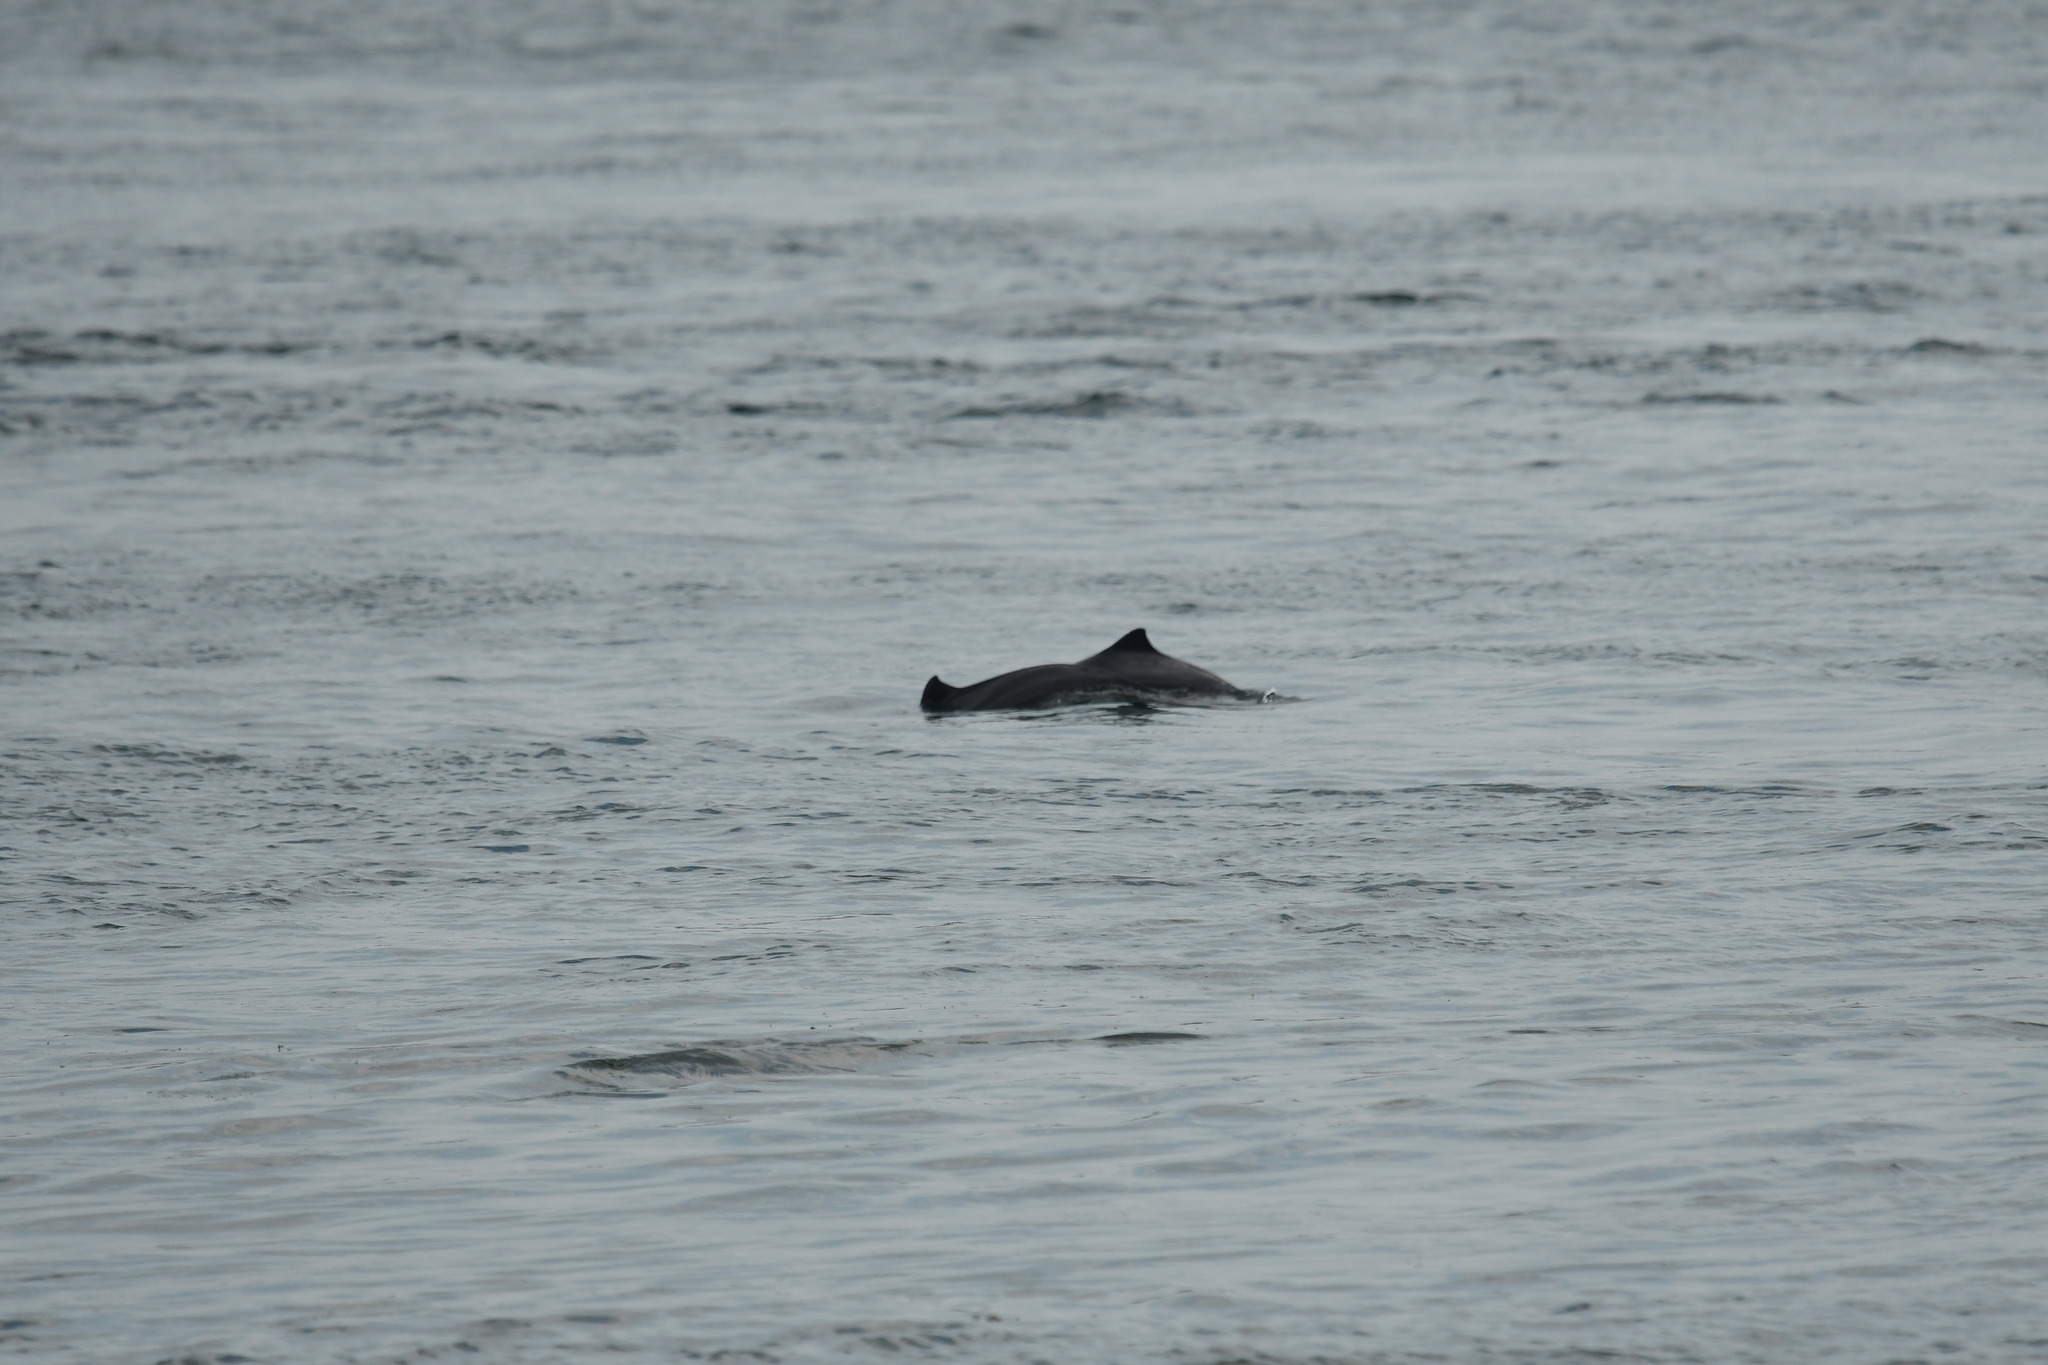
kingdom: Animalia
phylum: Chordata
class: Mammalia
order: Cetacea
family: Phocoenidae
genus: Phocoena
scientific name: Phocoena phocoena
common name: Harbor porpoise
